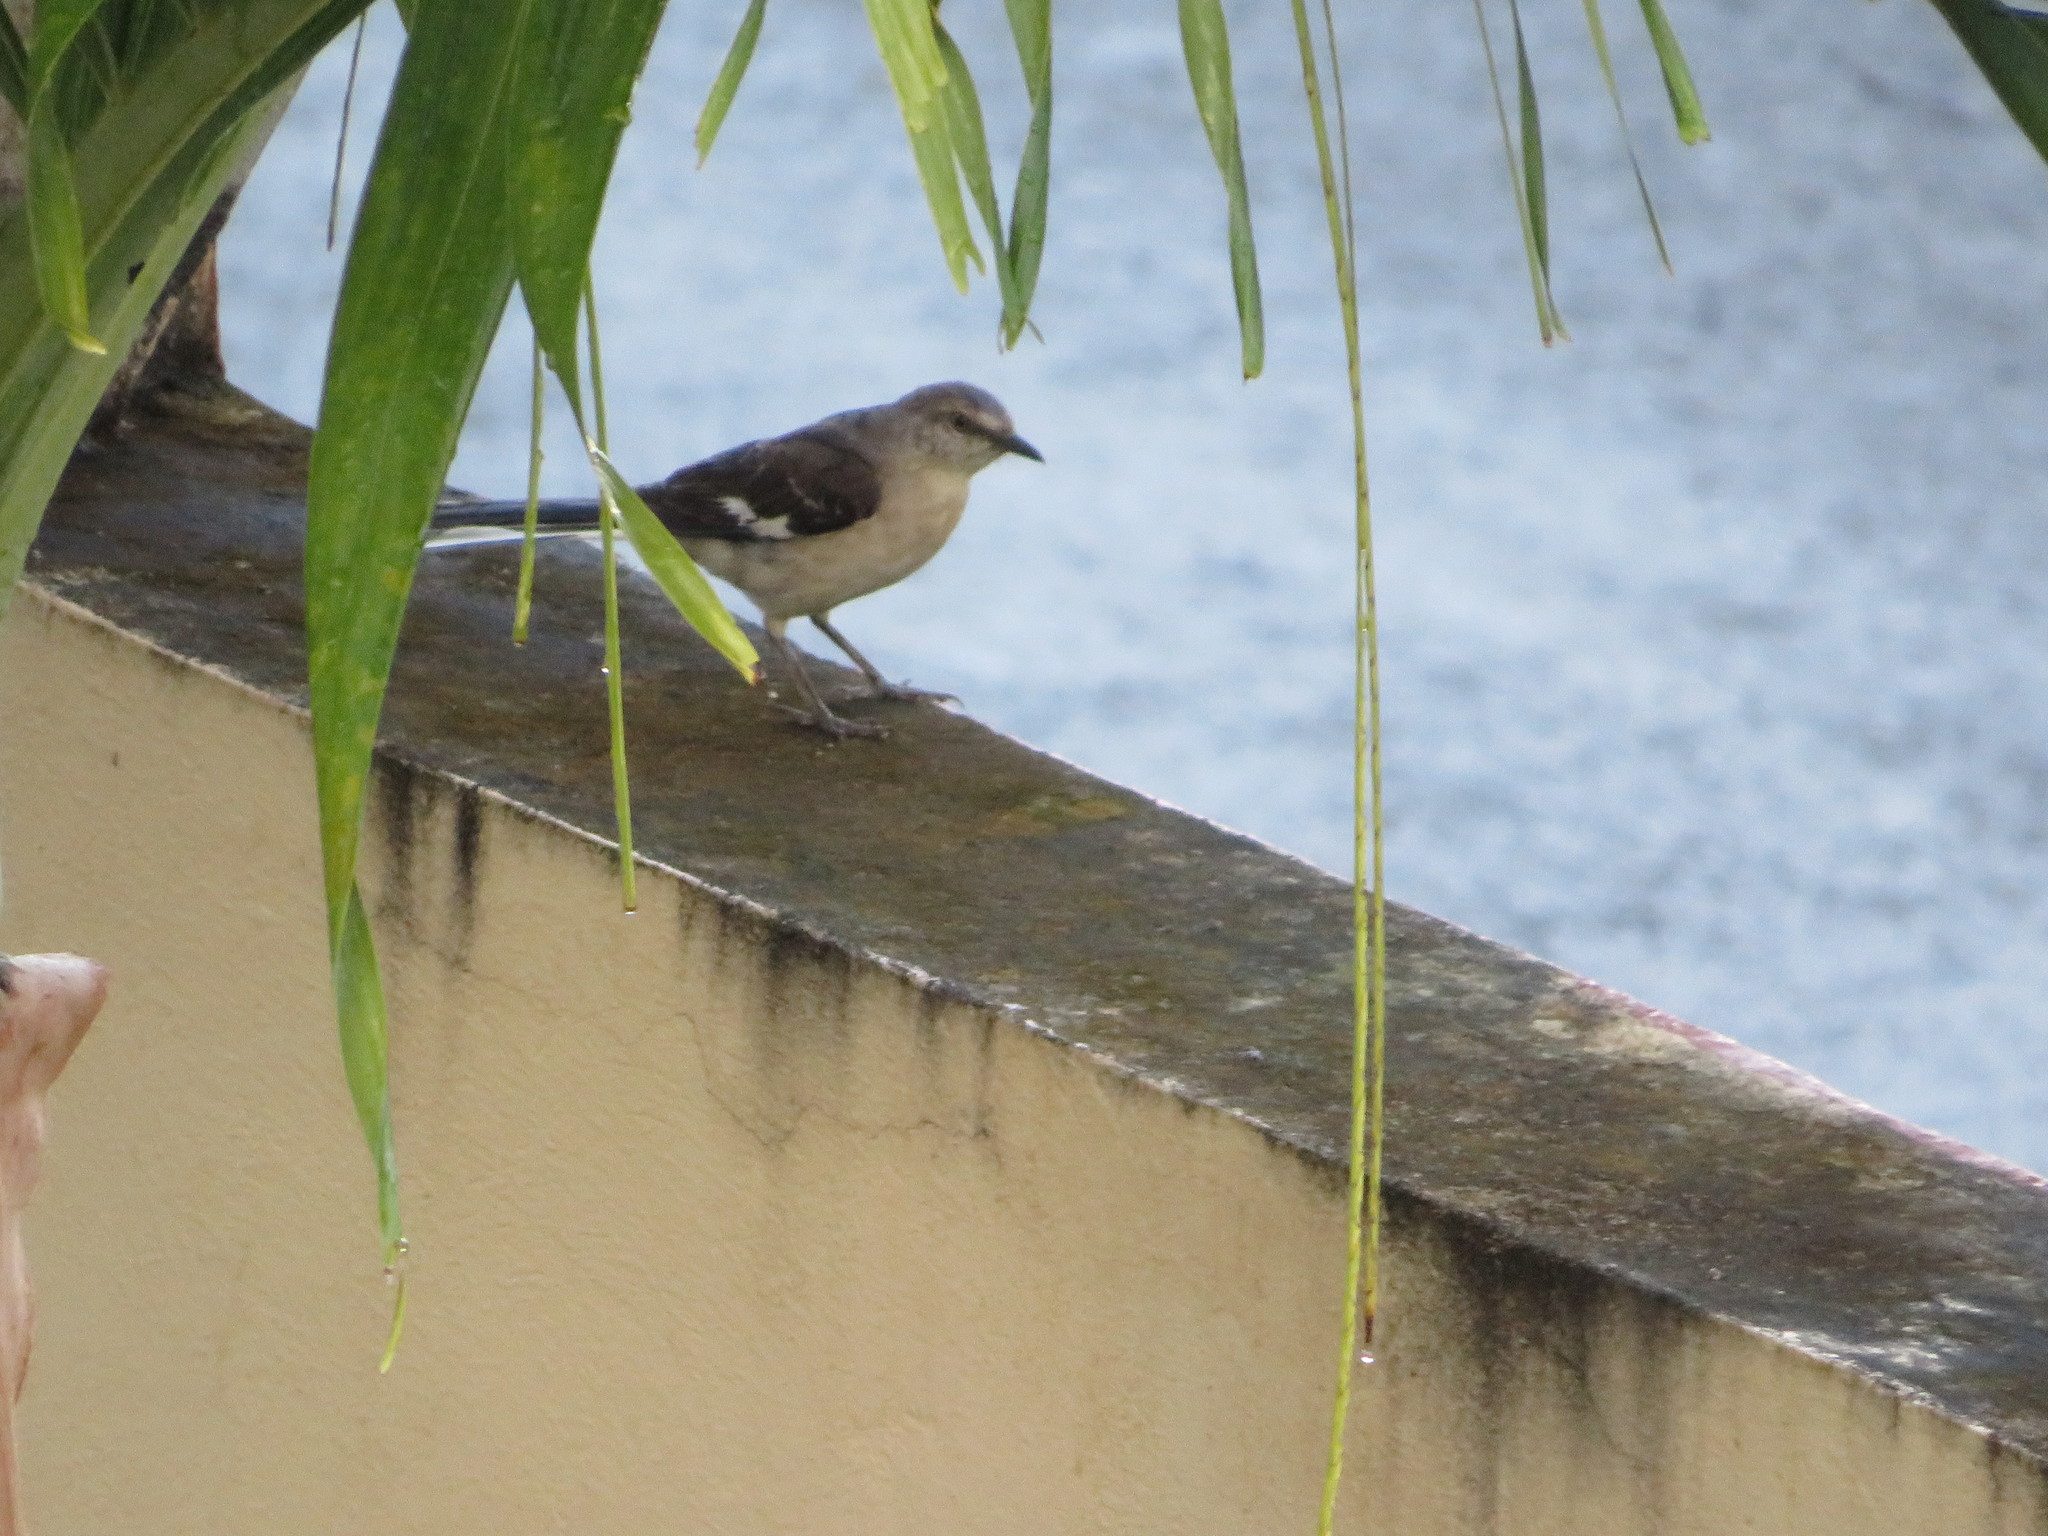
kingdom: Animalia
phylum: Chordata
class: Aves
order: Passeriformes
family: Mimidae
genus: Mimus
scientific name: Mimus polyglottos
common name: Northern mockingbird
